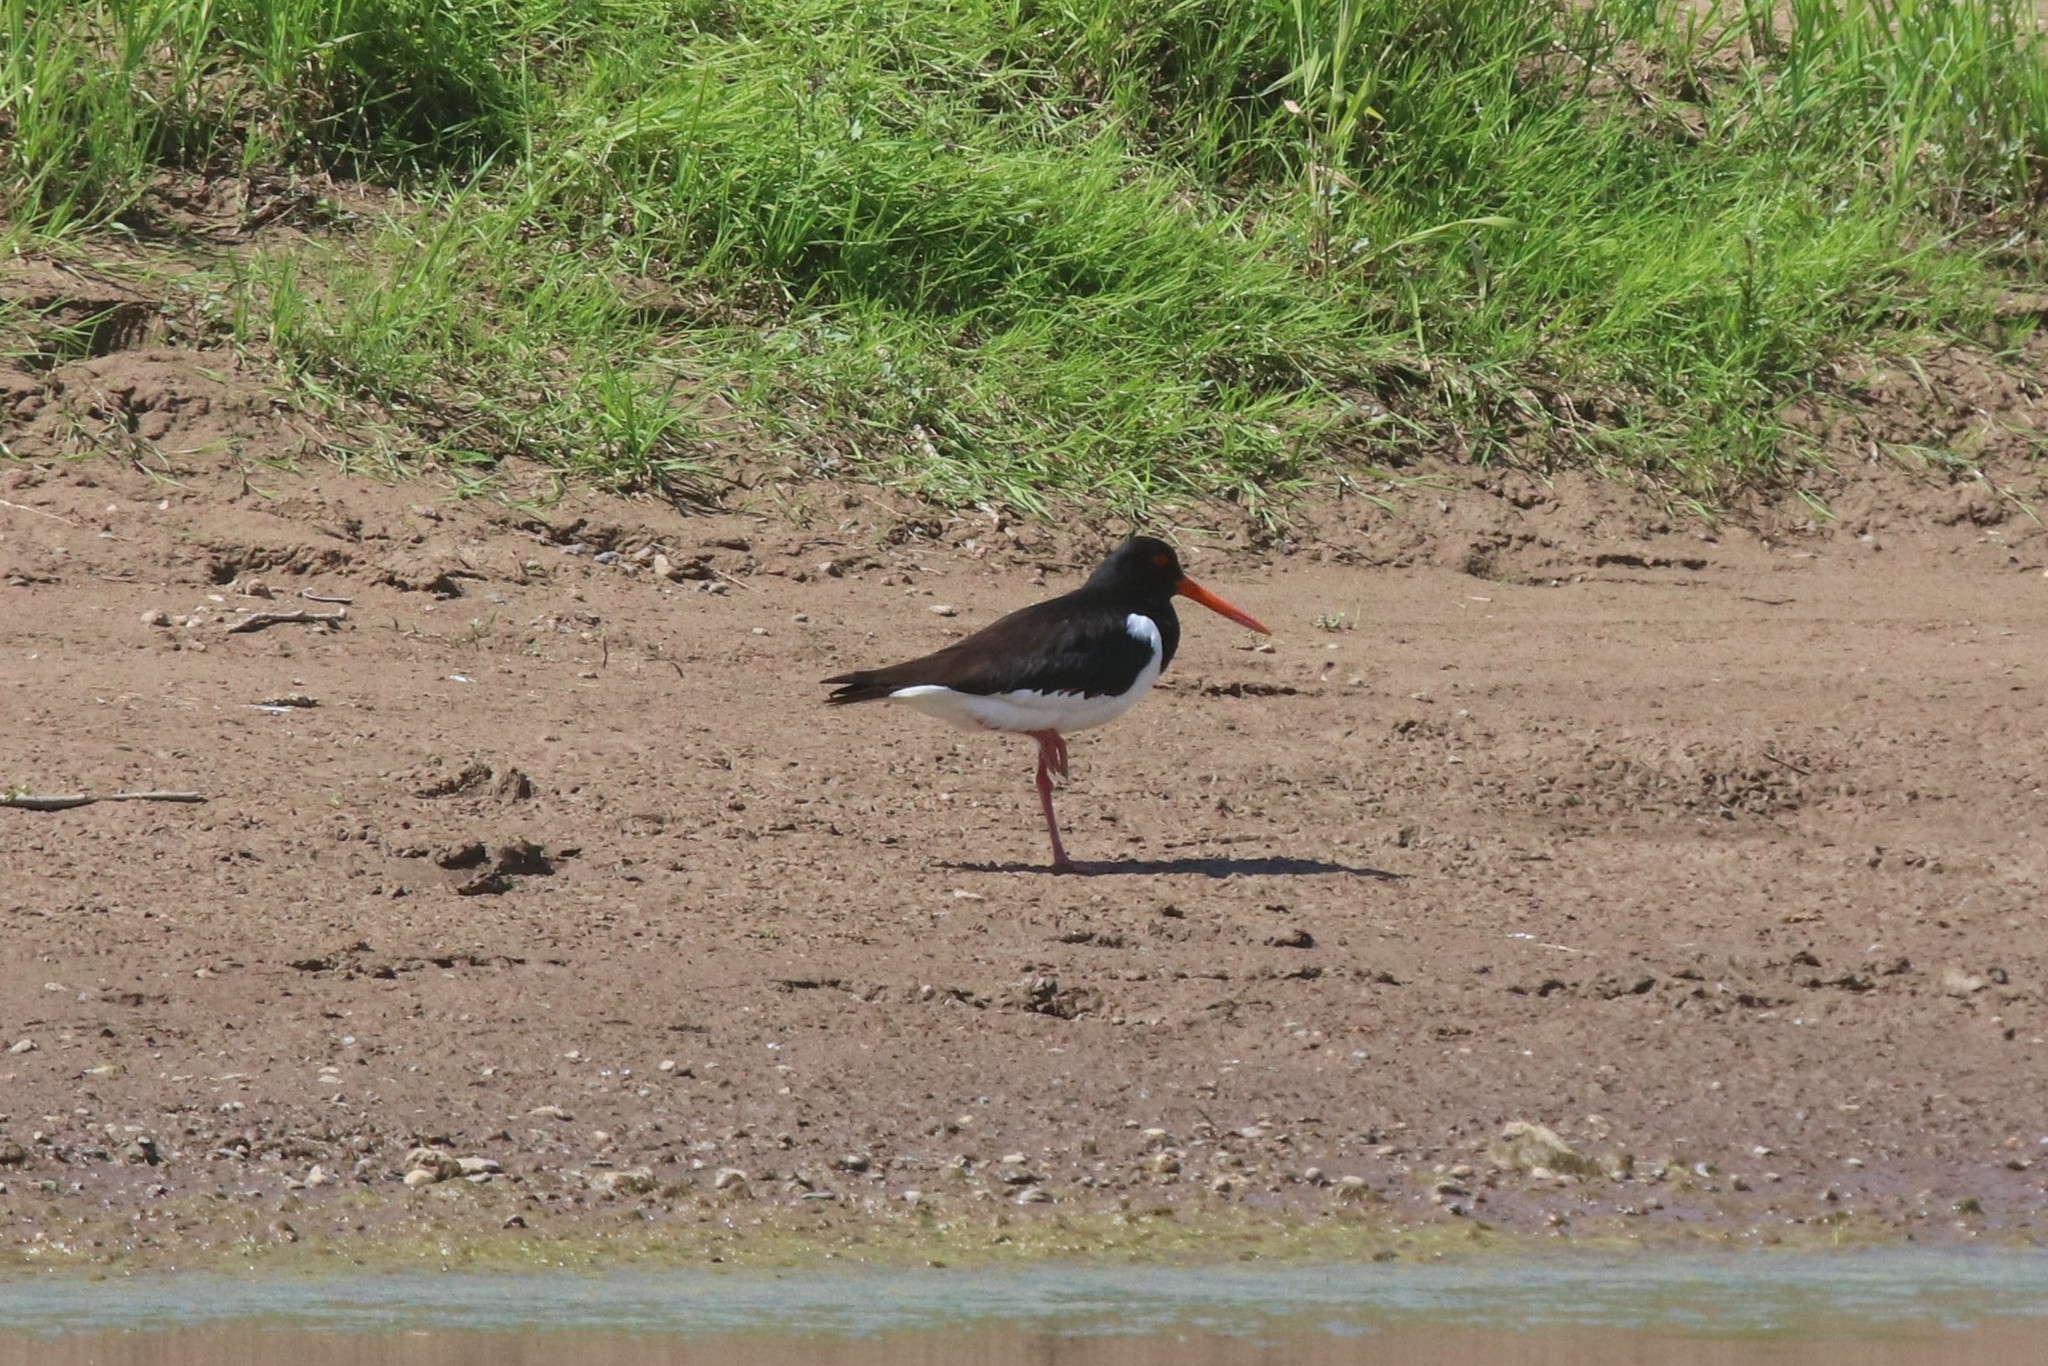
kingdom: Animalia
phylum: Chordata
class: Aves
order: Charadriiformes
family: Haematopodidae
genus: Haematopus
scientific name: Haematopus ostralegus
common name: Eurasian oystercatcher
